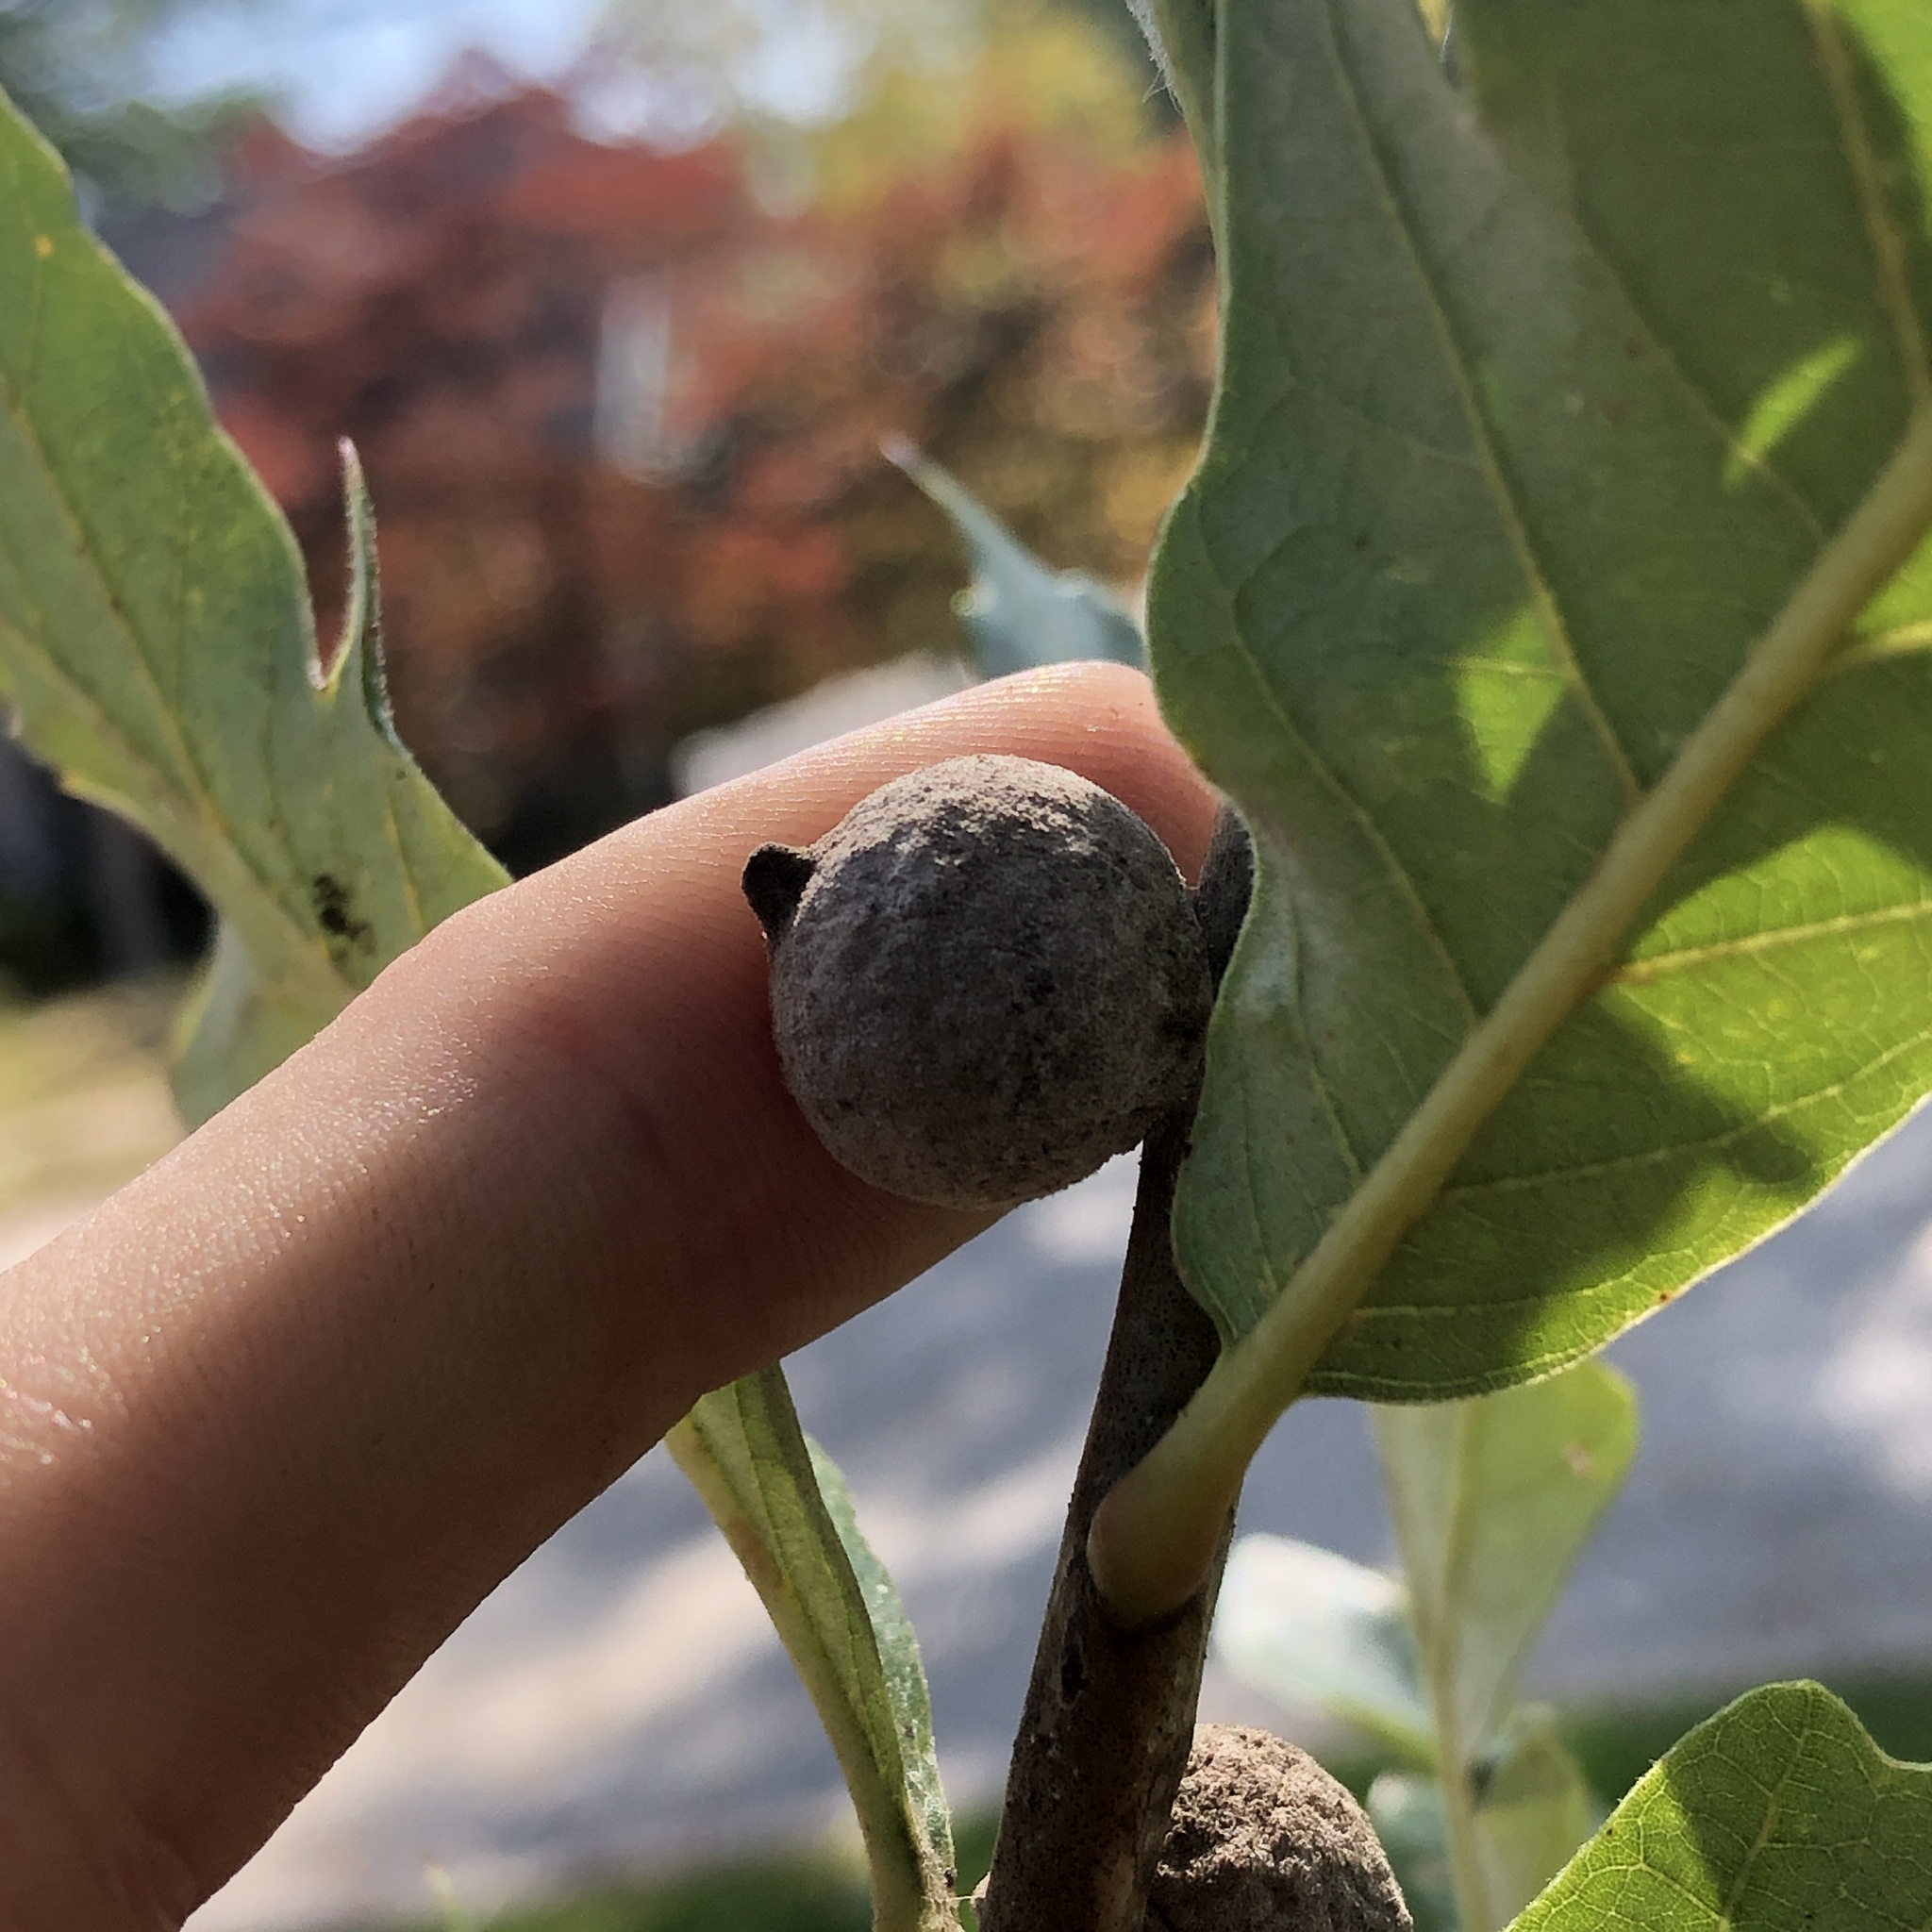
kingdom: Animalia
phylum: Arthropoda
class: Insecta
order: Hymenoptera
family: Cynipidae
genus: Disholcaspis
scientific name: Disholcaspis
